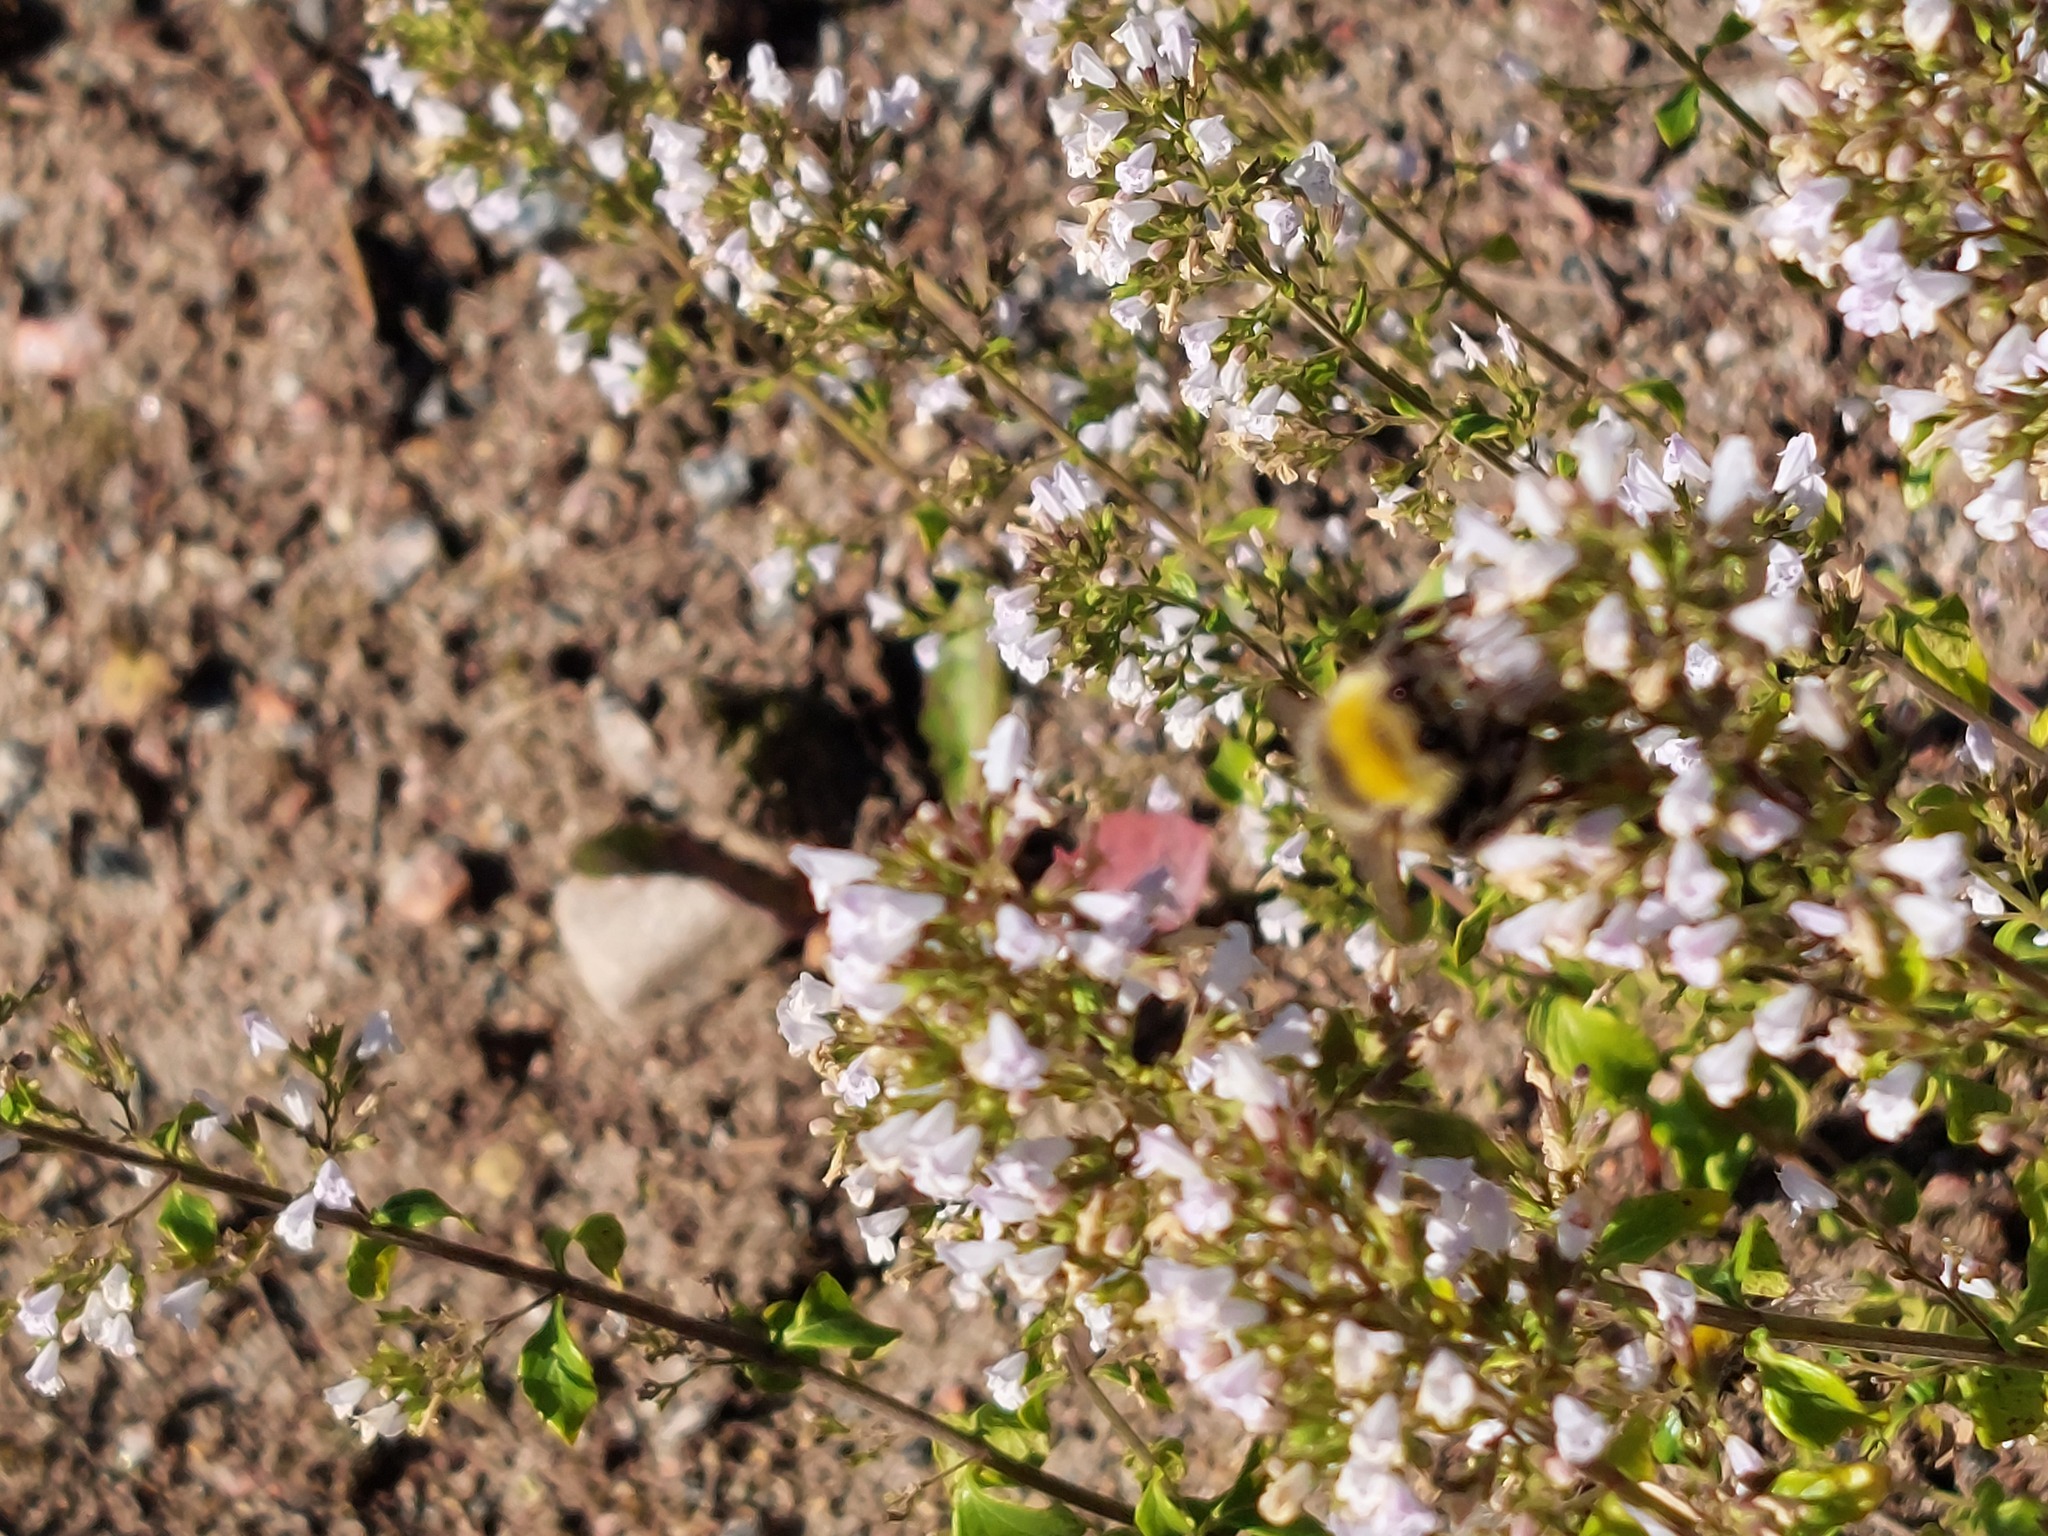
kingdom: Animalia
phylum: Arthropoda
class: Insecta
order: Hymenoptera
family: Apidae
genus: Bombus
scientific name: Bombus lucorum
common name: White-tailed bumblebee
